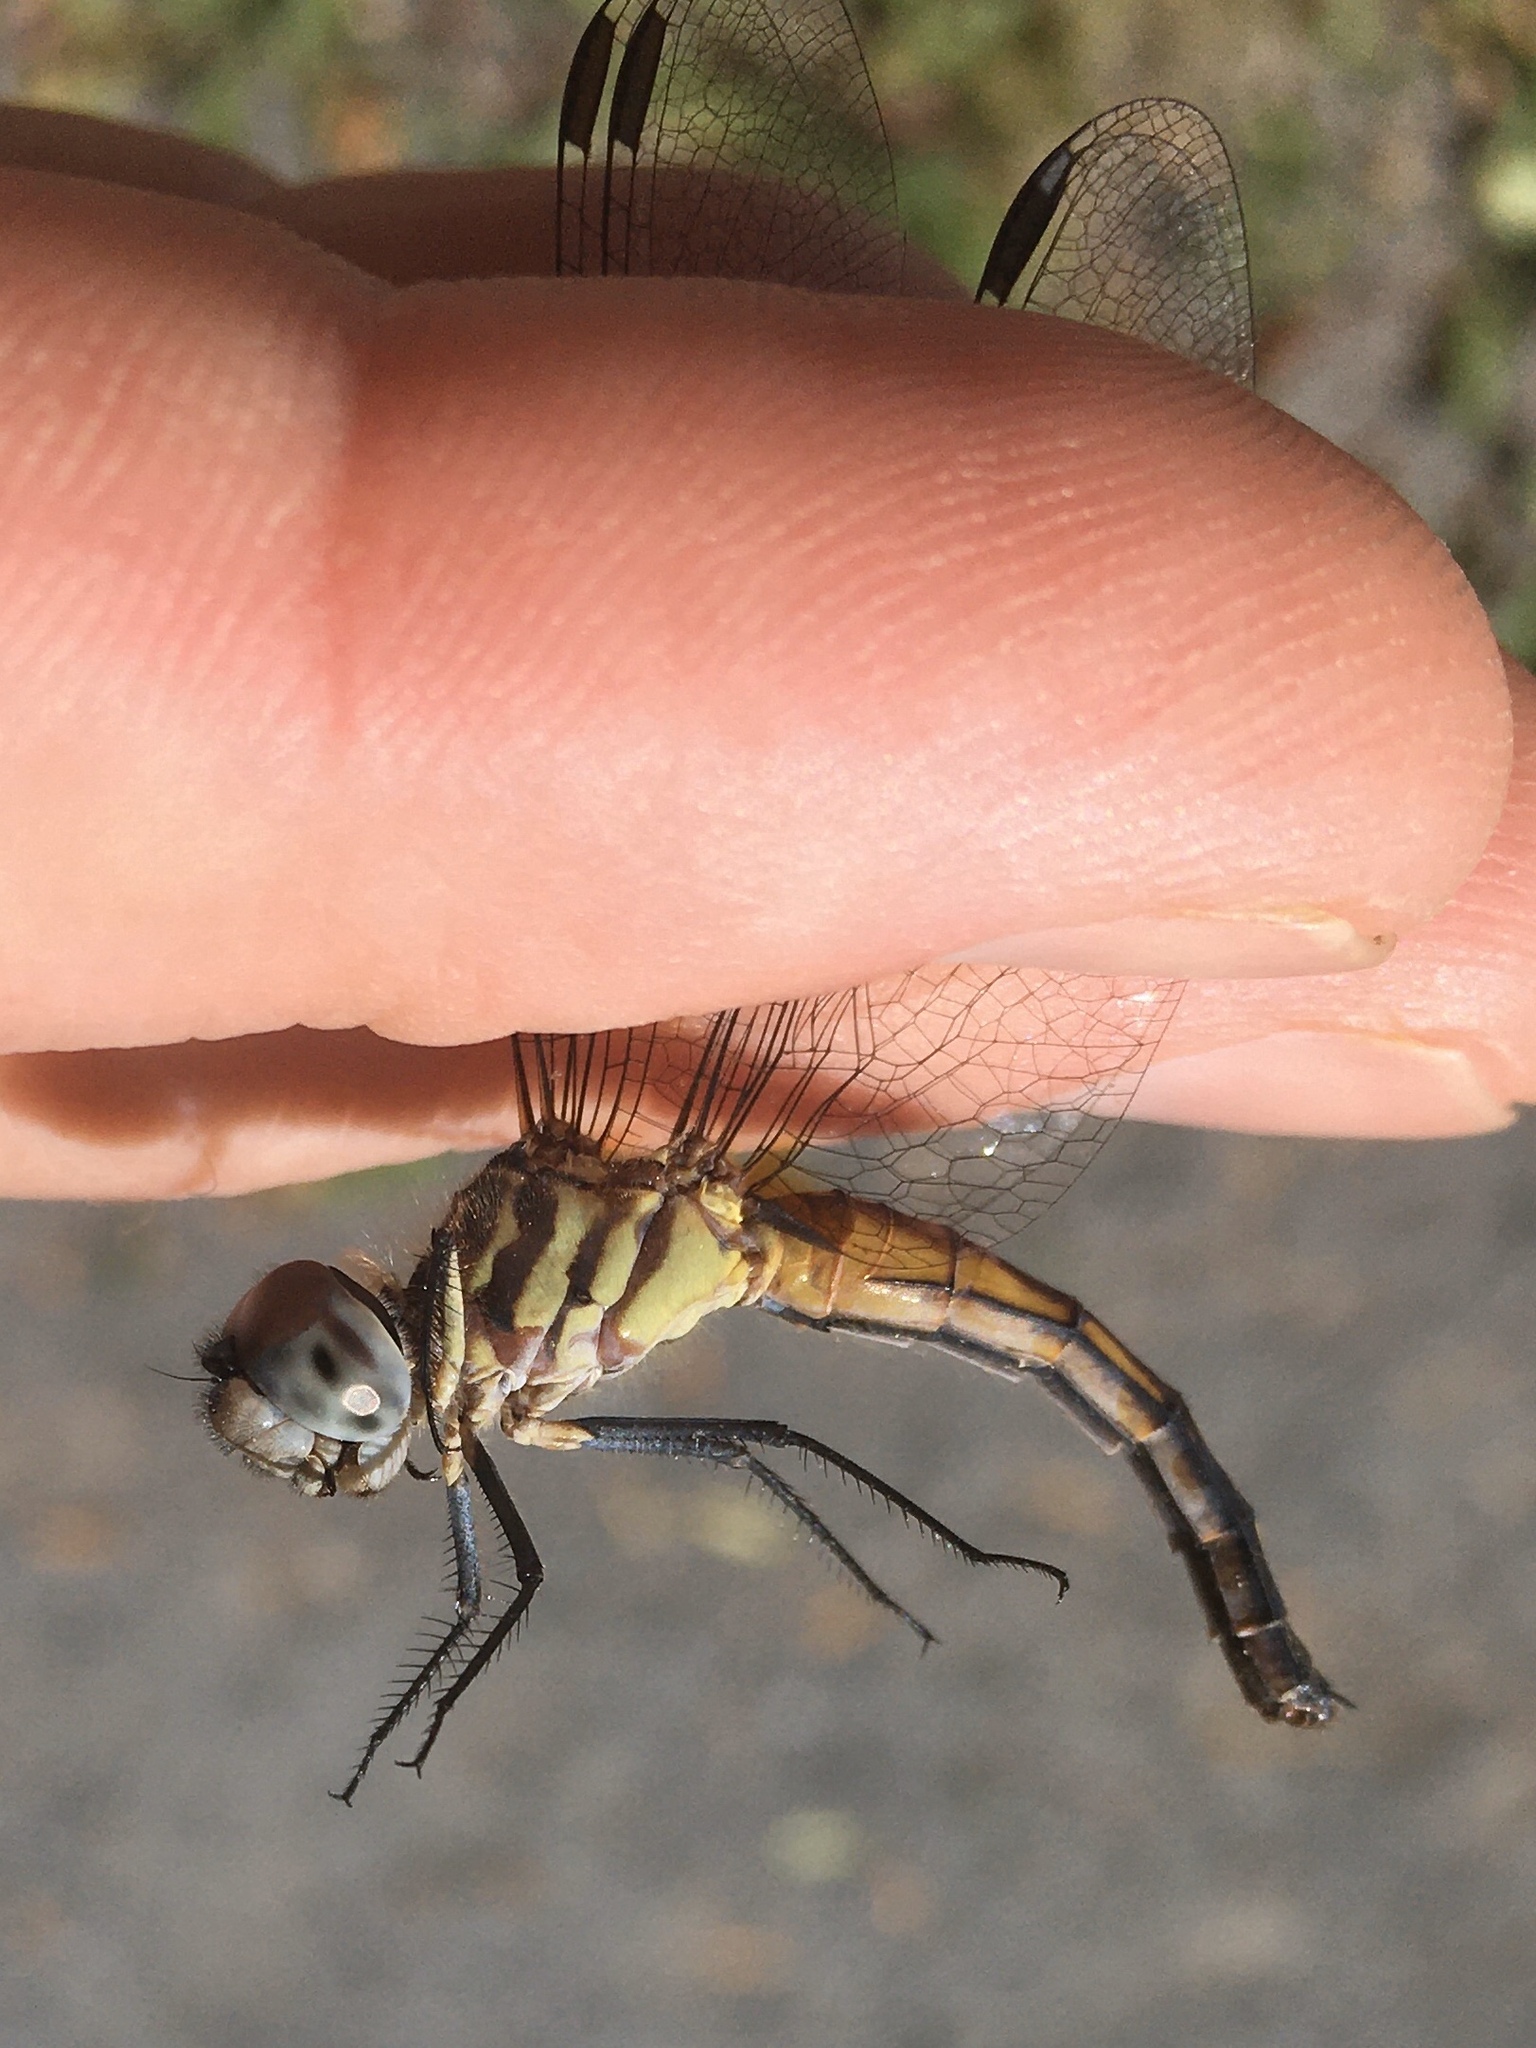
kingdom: Animalia
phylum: Arthropoda
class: Insecta
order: Odonata
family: Libellulidae
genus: Pachydiplax
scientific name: Pachydiplax longipennis
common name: Blue dasher
